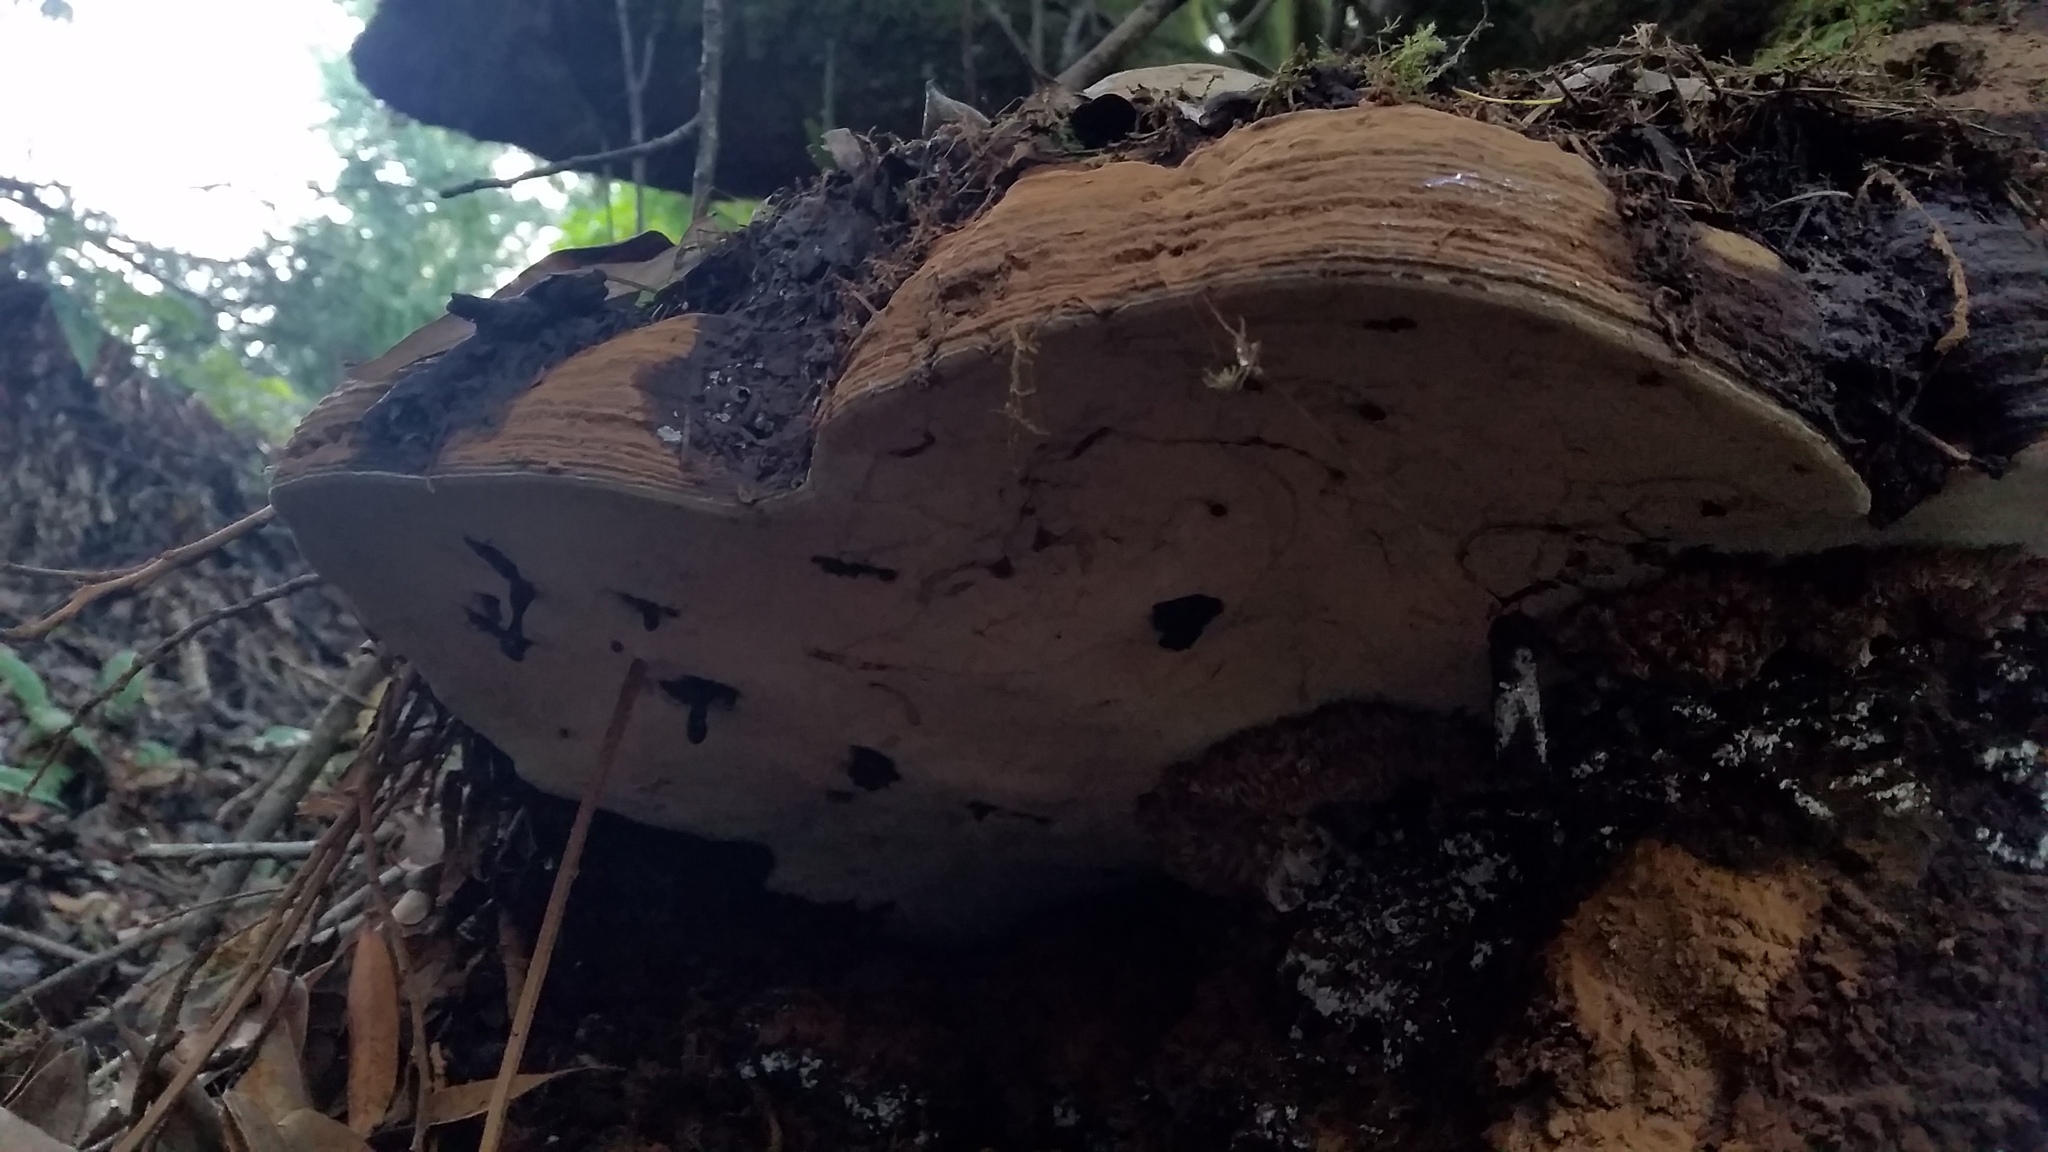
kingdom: Fungi
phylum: Basidiomycota
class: Agaricomycetes
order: Polyporales
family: Polyporaceae
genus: Ganoderma
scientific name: Ganoderma brownii
